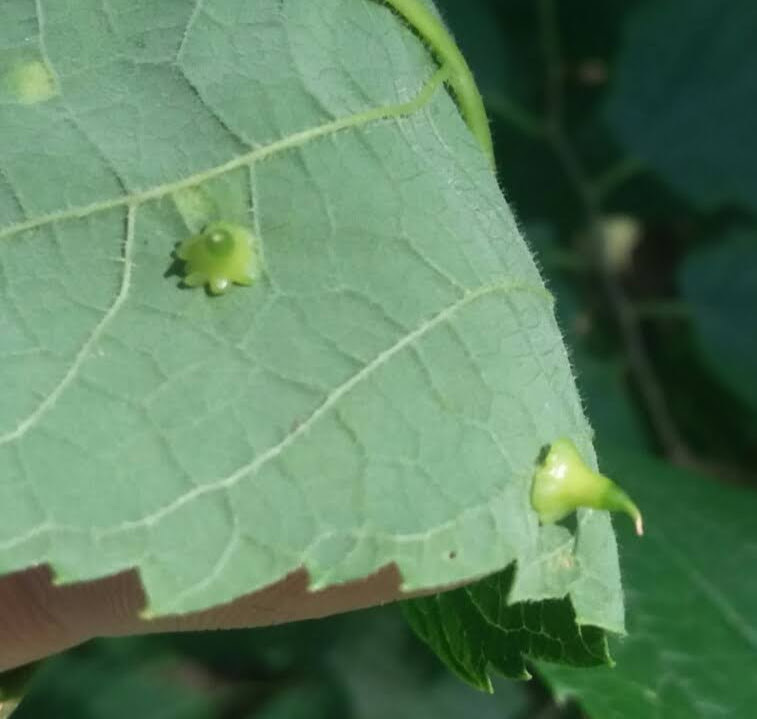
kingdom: Animalia
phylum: Arthropoda
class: Insecta
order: Diptera
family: Cecidomyiidae
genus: Celticecis
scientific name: Celticecis spiniformis
